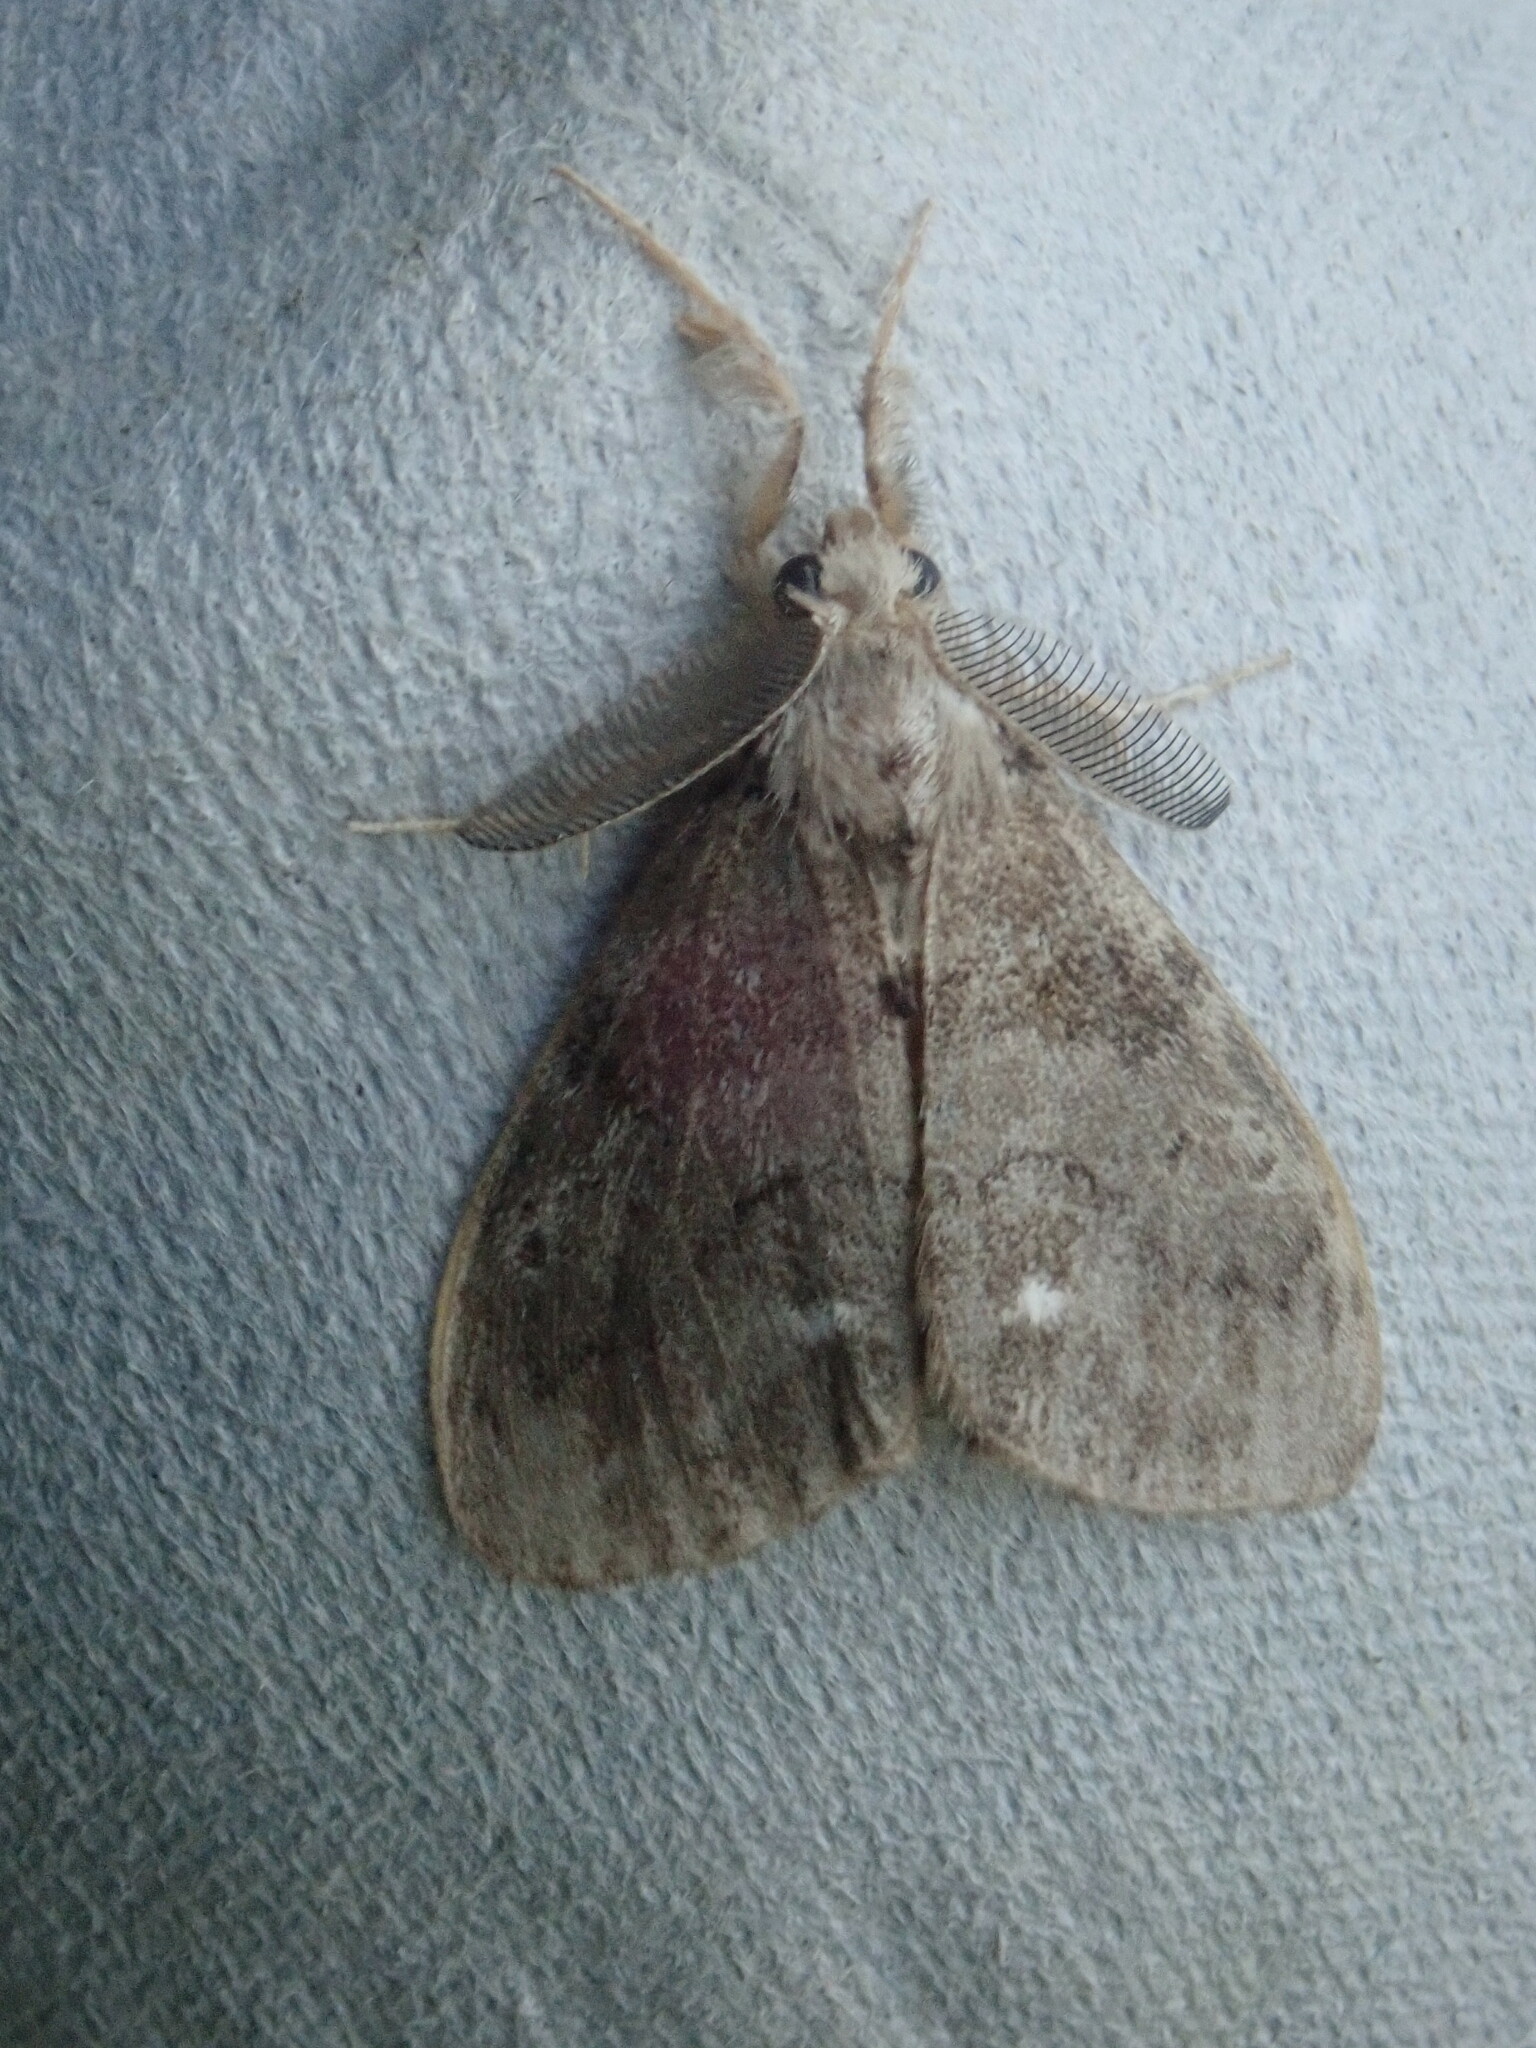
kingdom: Animalia
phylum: Arthropoda
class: Insecta
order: Lepidoptera
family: Erebidae
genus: Orgyia
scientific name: Orgyia leucostigma
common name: White-marked tussock moth
